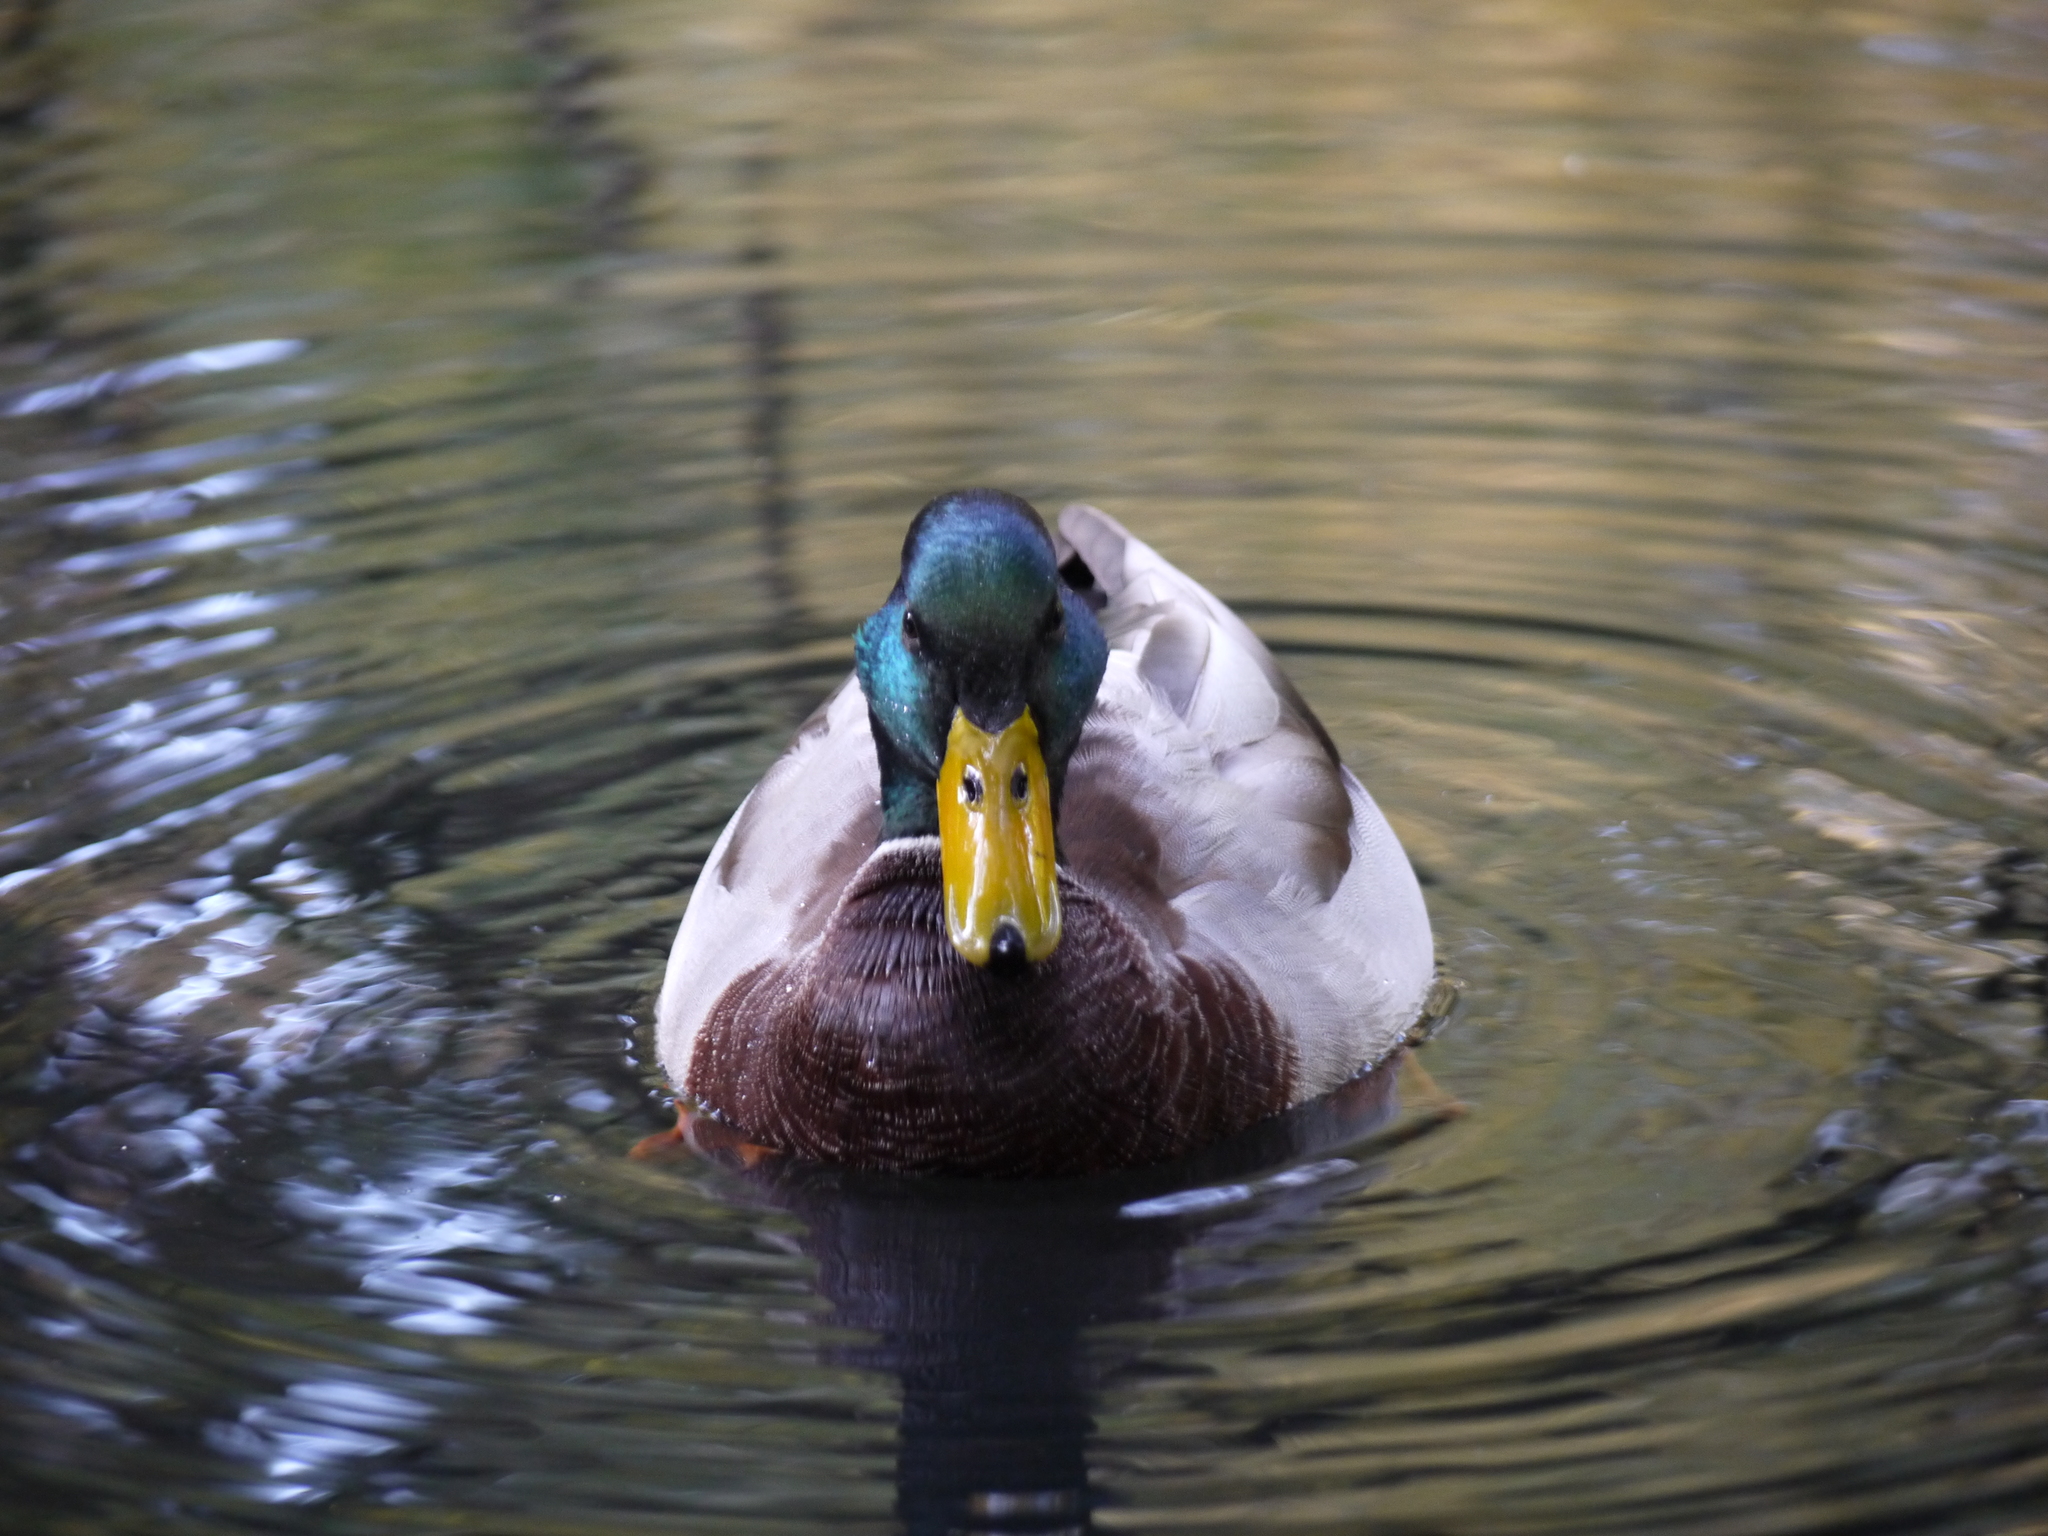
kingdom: Animalia
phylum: Chordata
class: Aves
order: Anseriformes
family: Anatidae
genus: Anas
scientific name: Anas platyrhynchos
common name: Mallard
